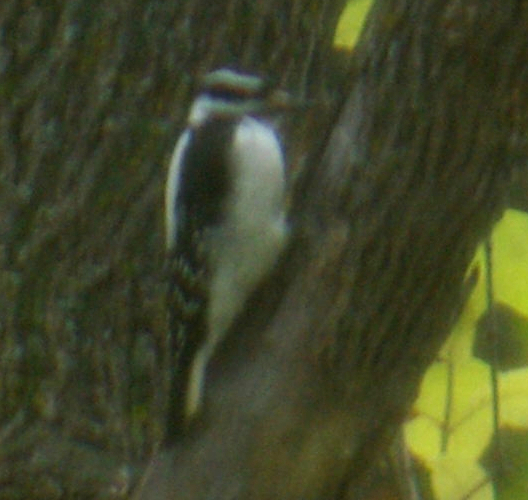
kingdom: Animalia
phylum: Chordata
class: Aves
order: Piciformes
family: Picidae
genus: Leuconotopicus
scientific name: Leuconotopicus villosus
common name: Hairy woodpecker
